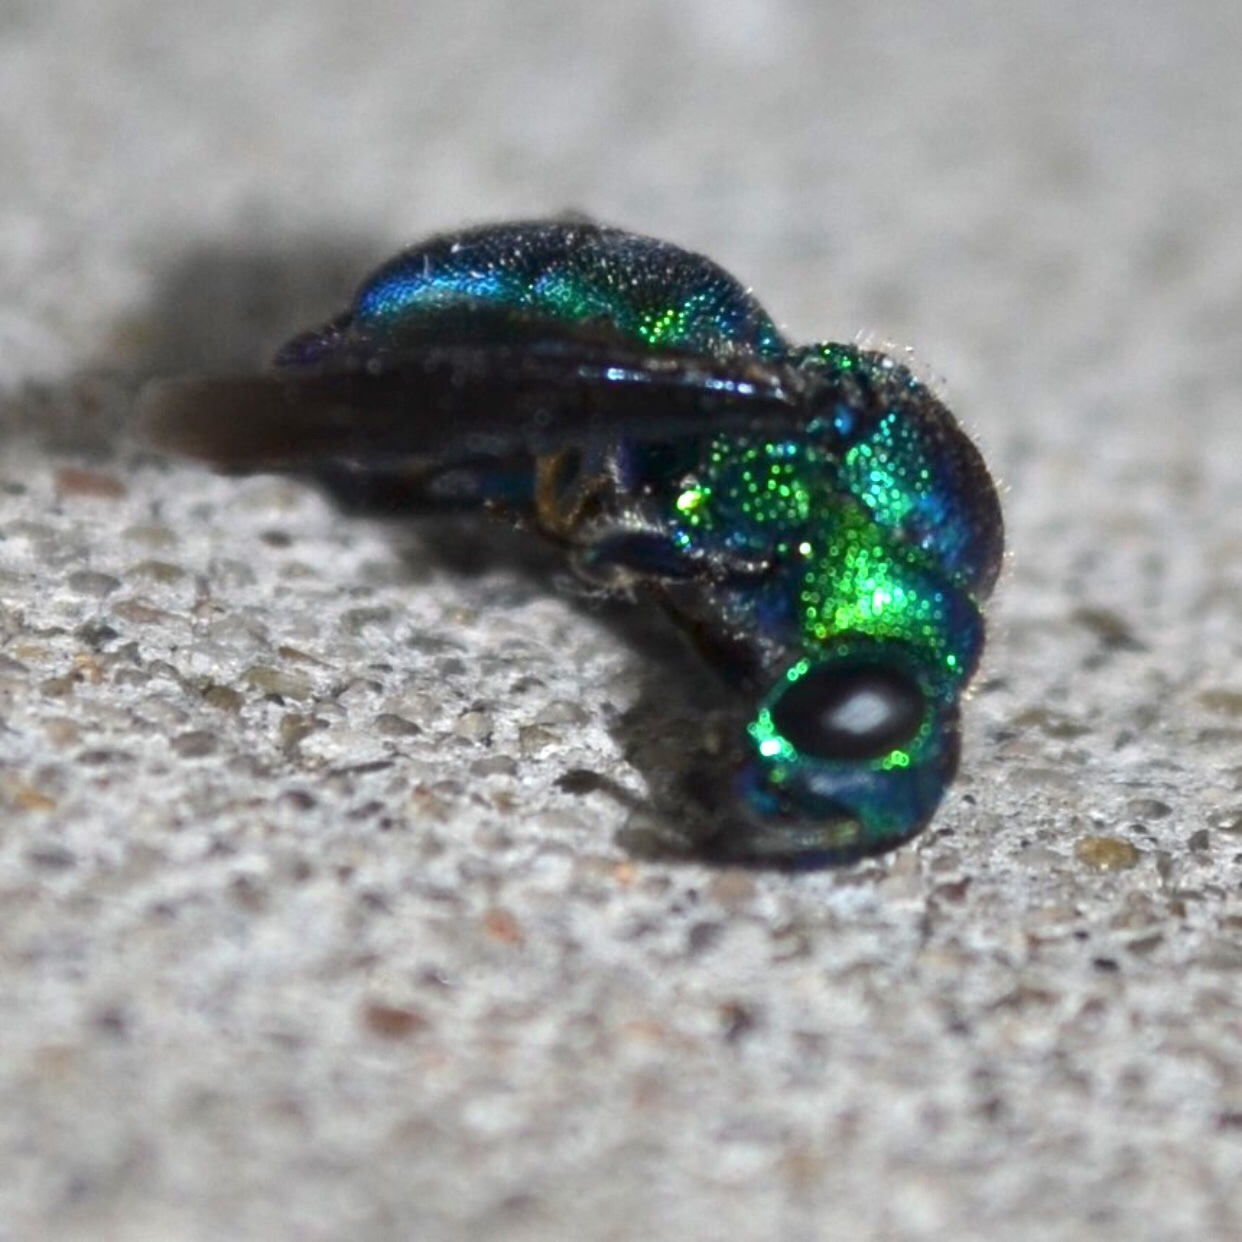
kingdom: Animalia
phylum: Arthropoda
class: Insecta
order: Hymenoptera
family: Chrysididae
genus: Chrysis
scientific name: Chrysis angolensis
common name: Cuckoo wasp
